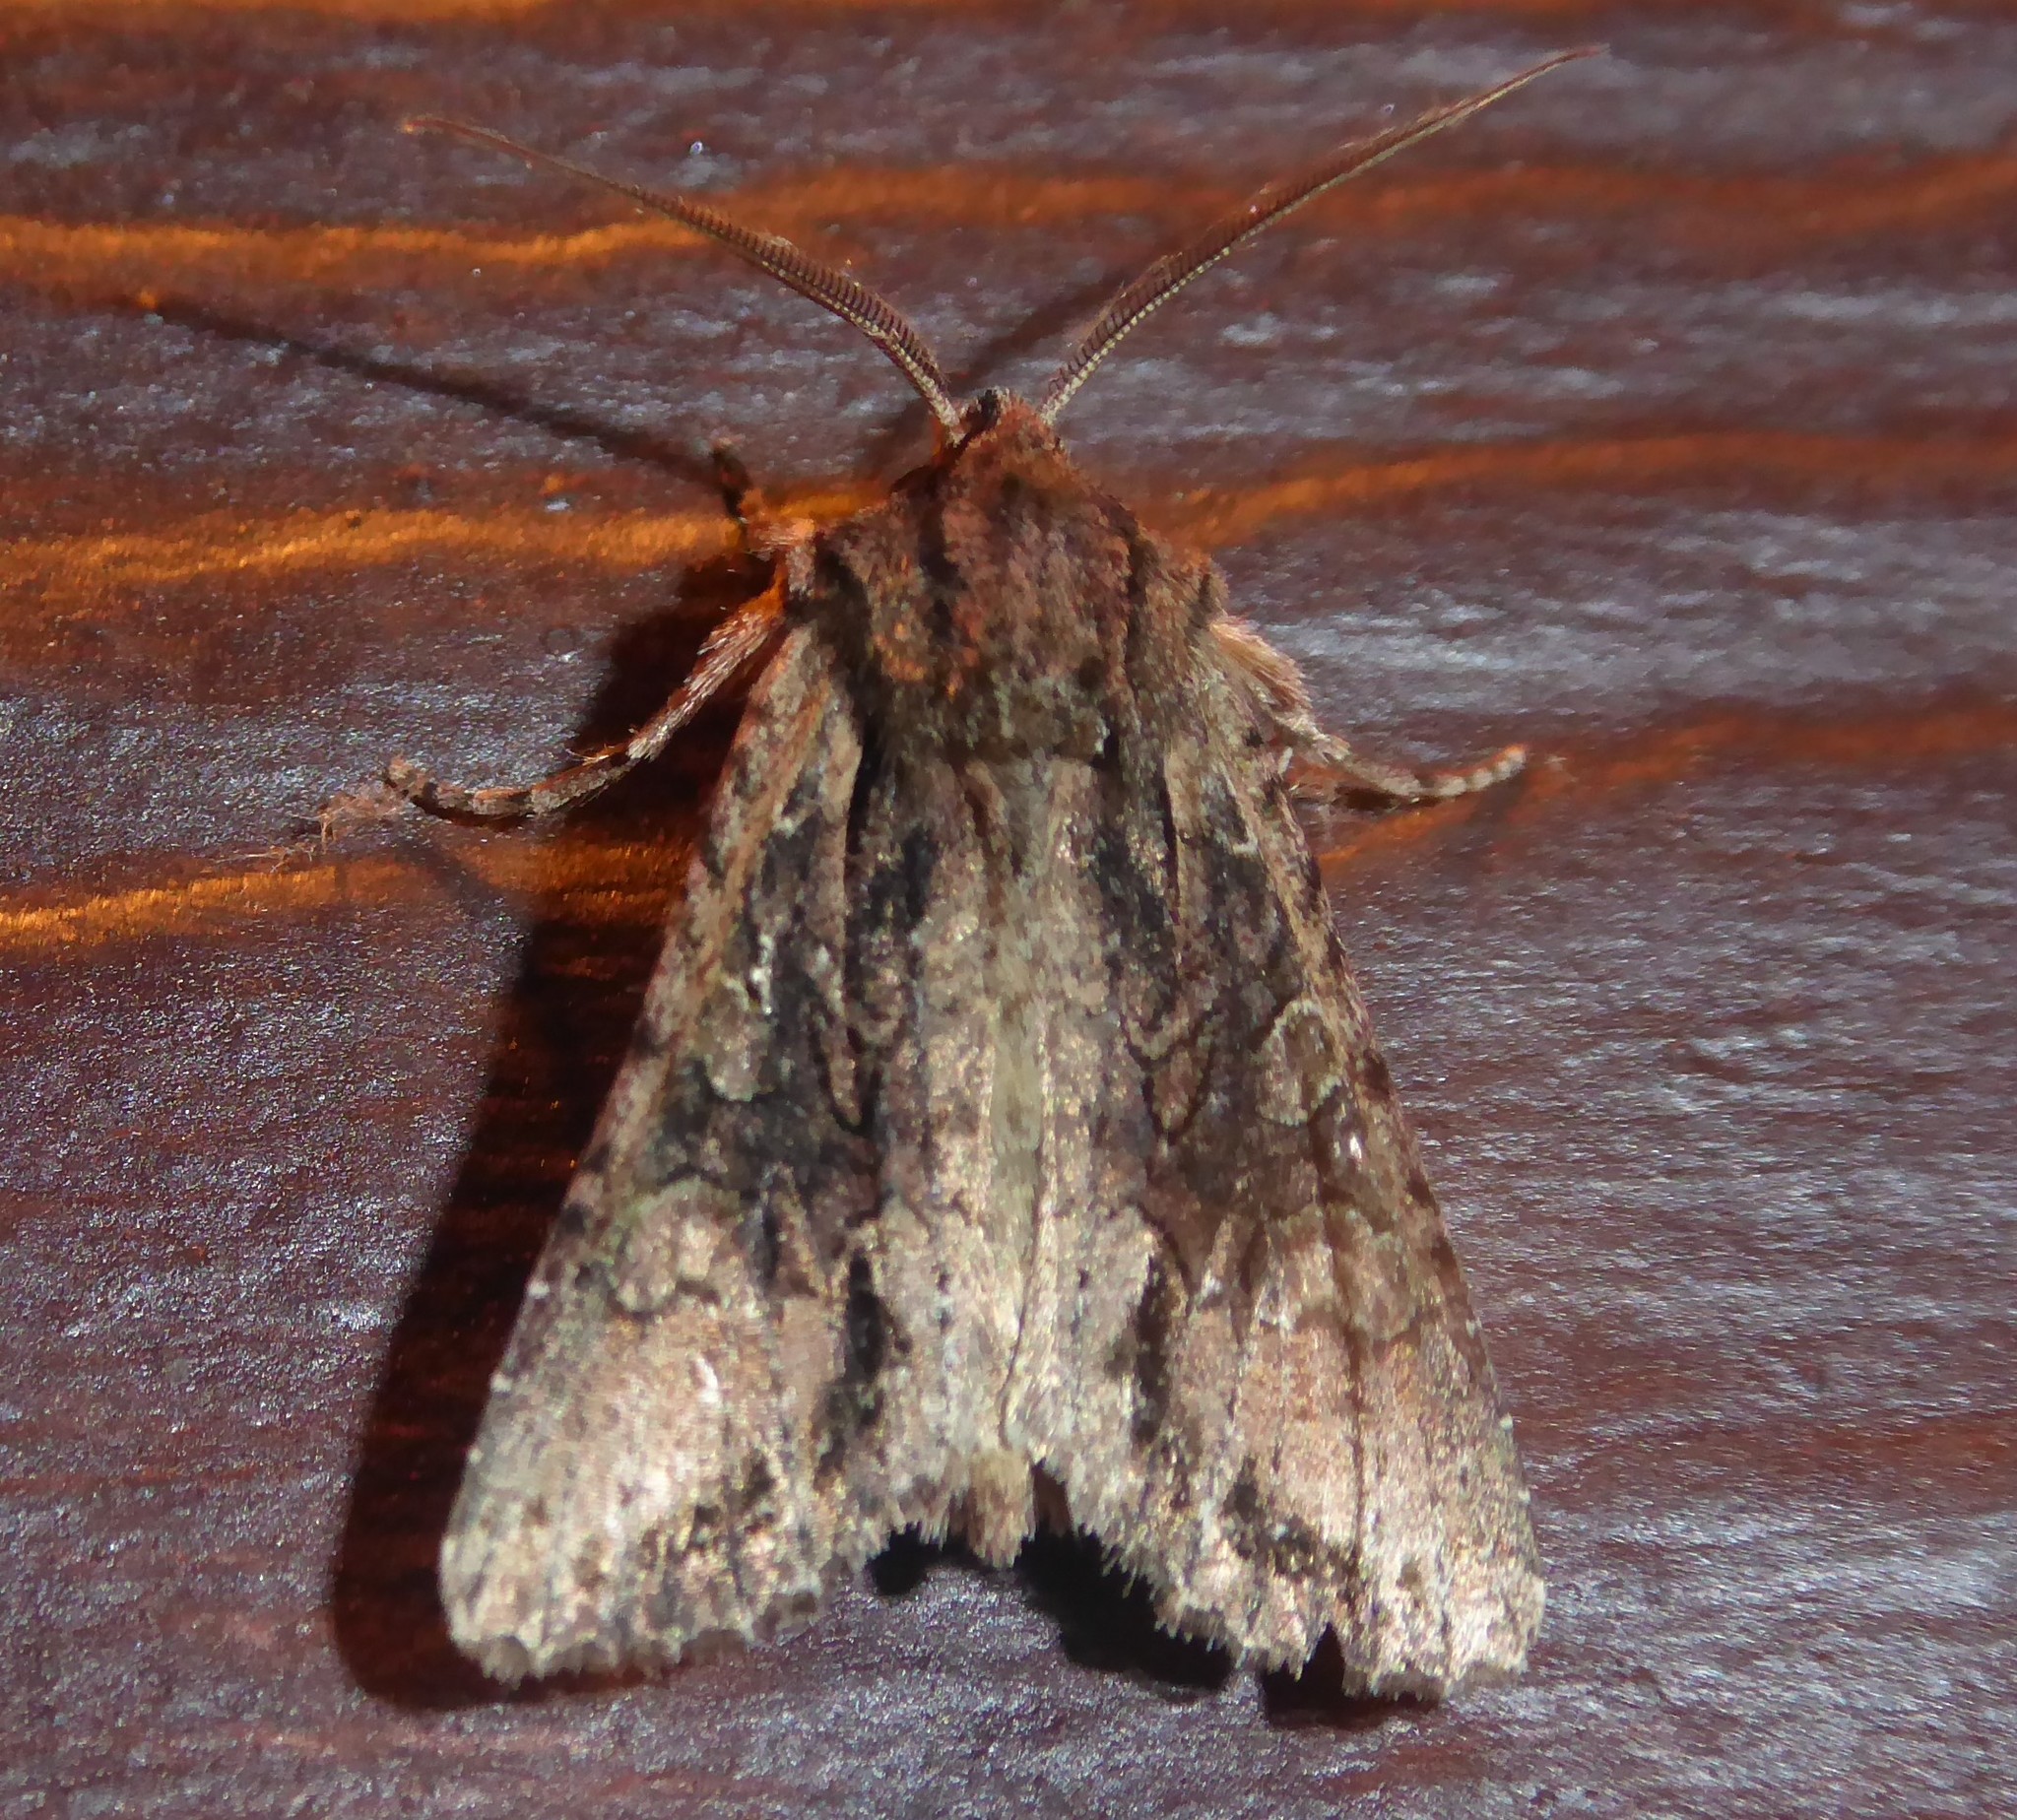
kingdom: Animalia
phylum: Arthropoda
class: Insecta
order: Lepidoptera
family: Noctuidae
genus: Ichneutica
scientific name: Ichneutica mutans
